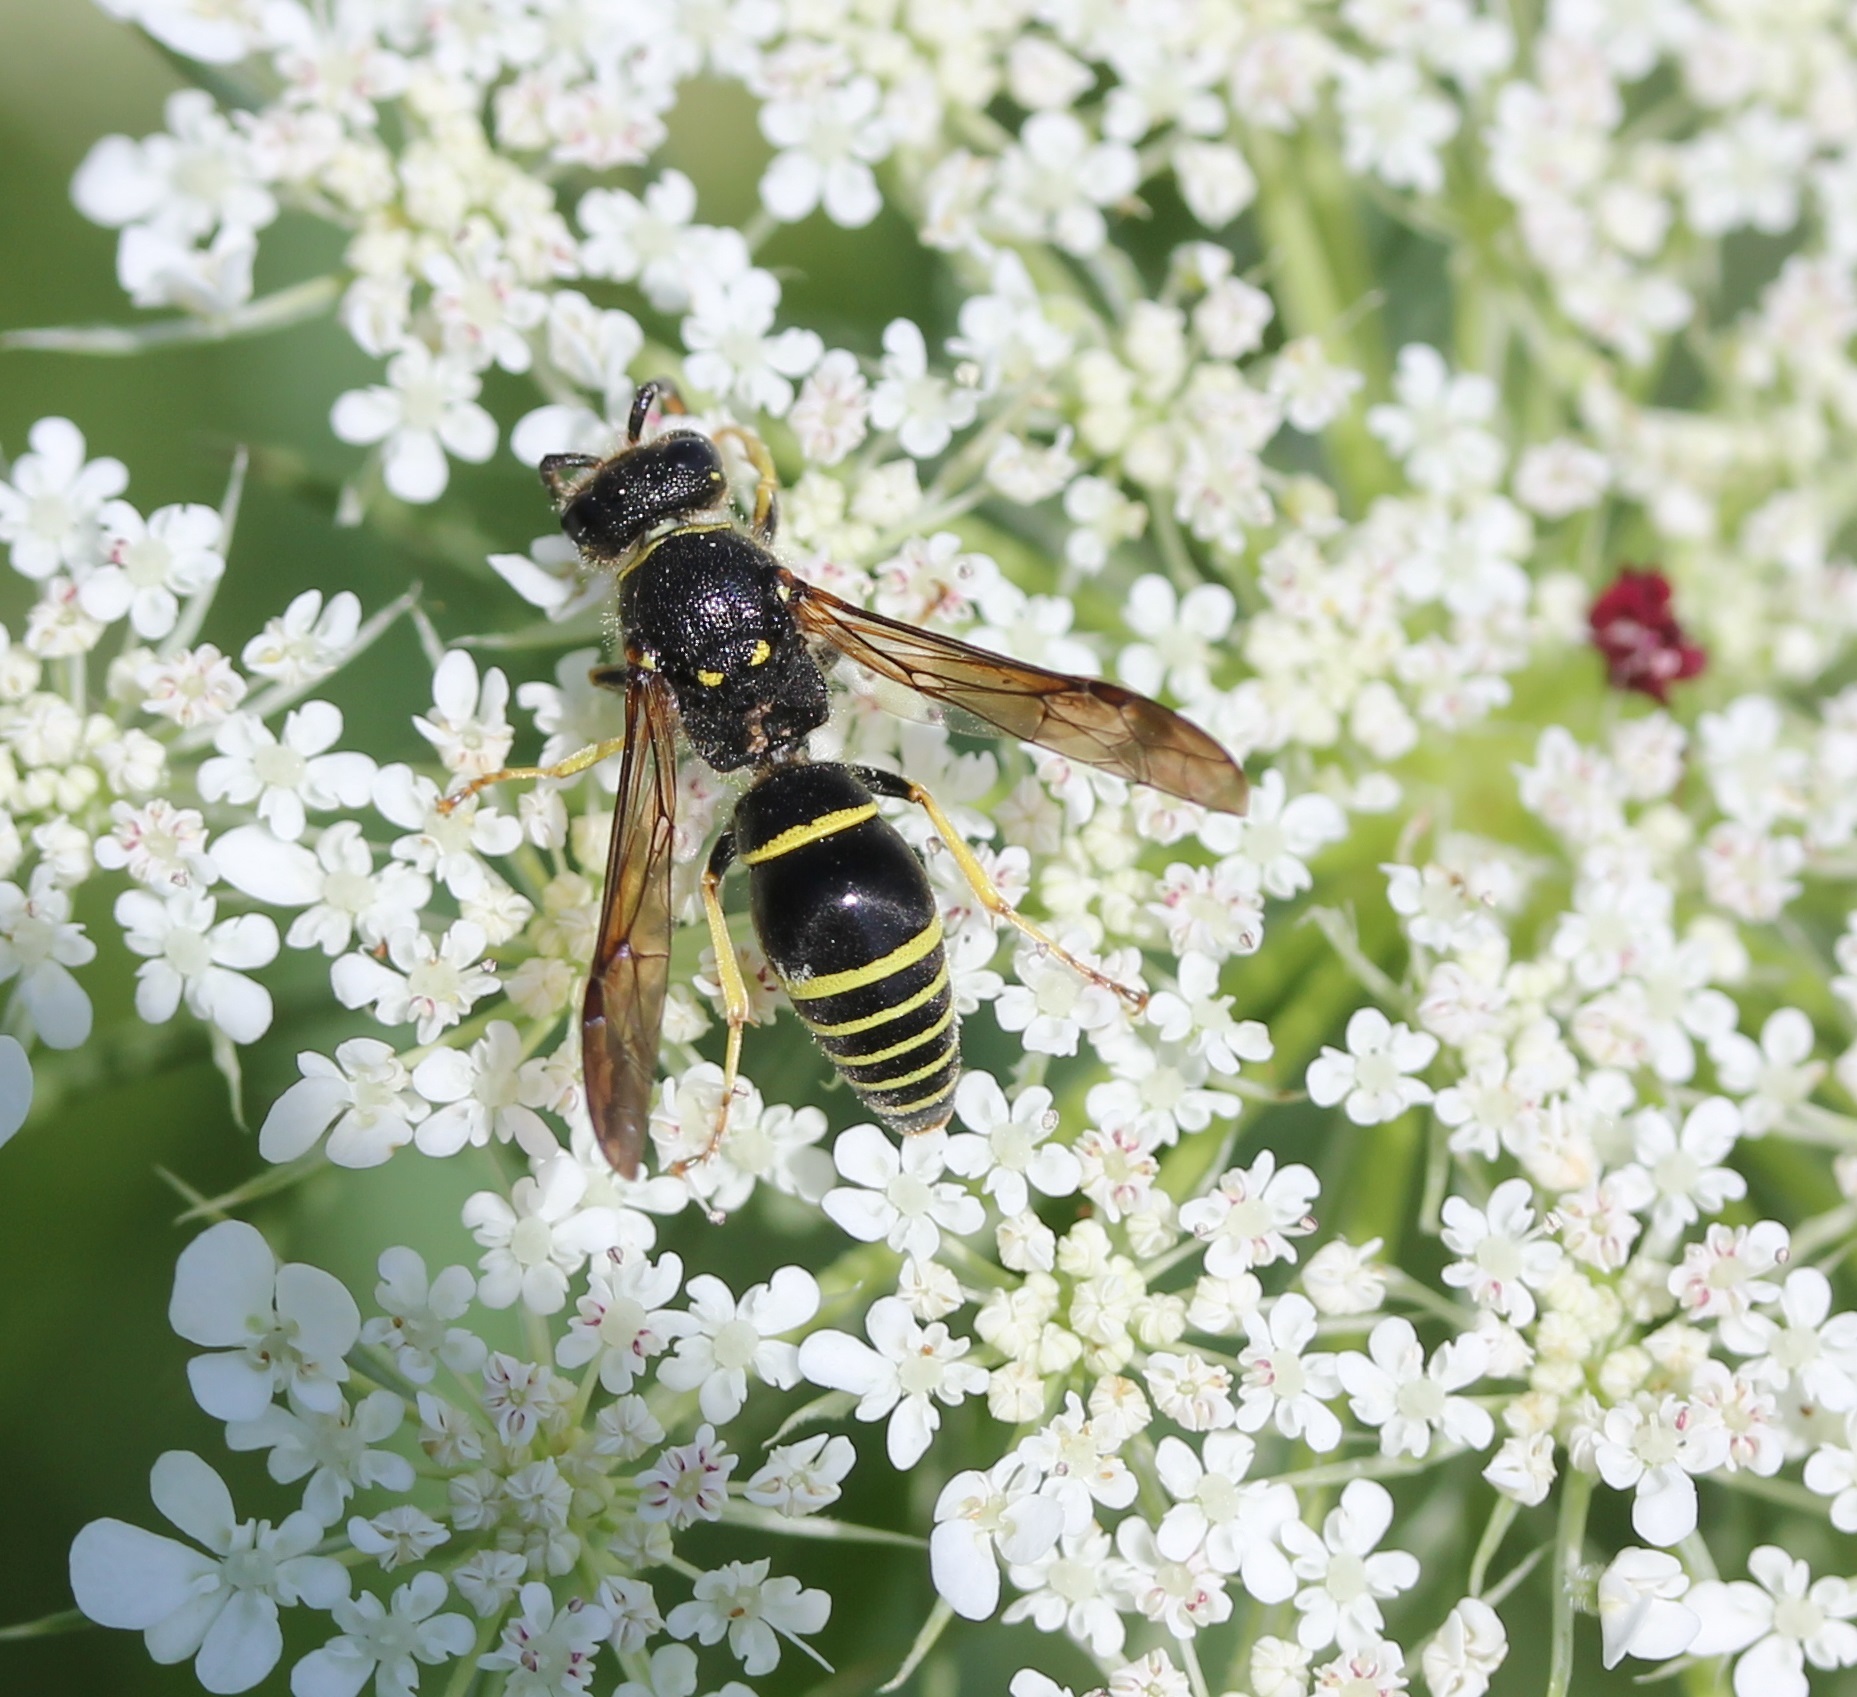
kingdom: Animalia
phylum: Arthropoda
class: Insecta
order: Hymenoptera
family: Vespidae
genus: Ancistrocerus
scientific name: Ancistrocerus
